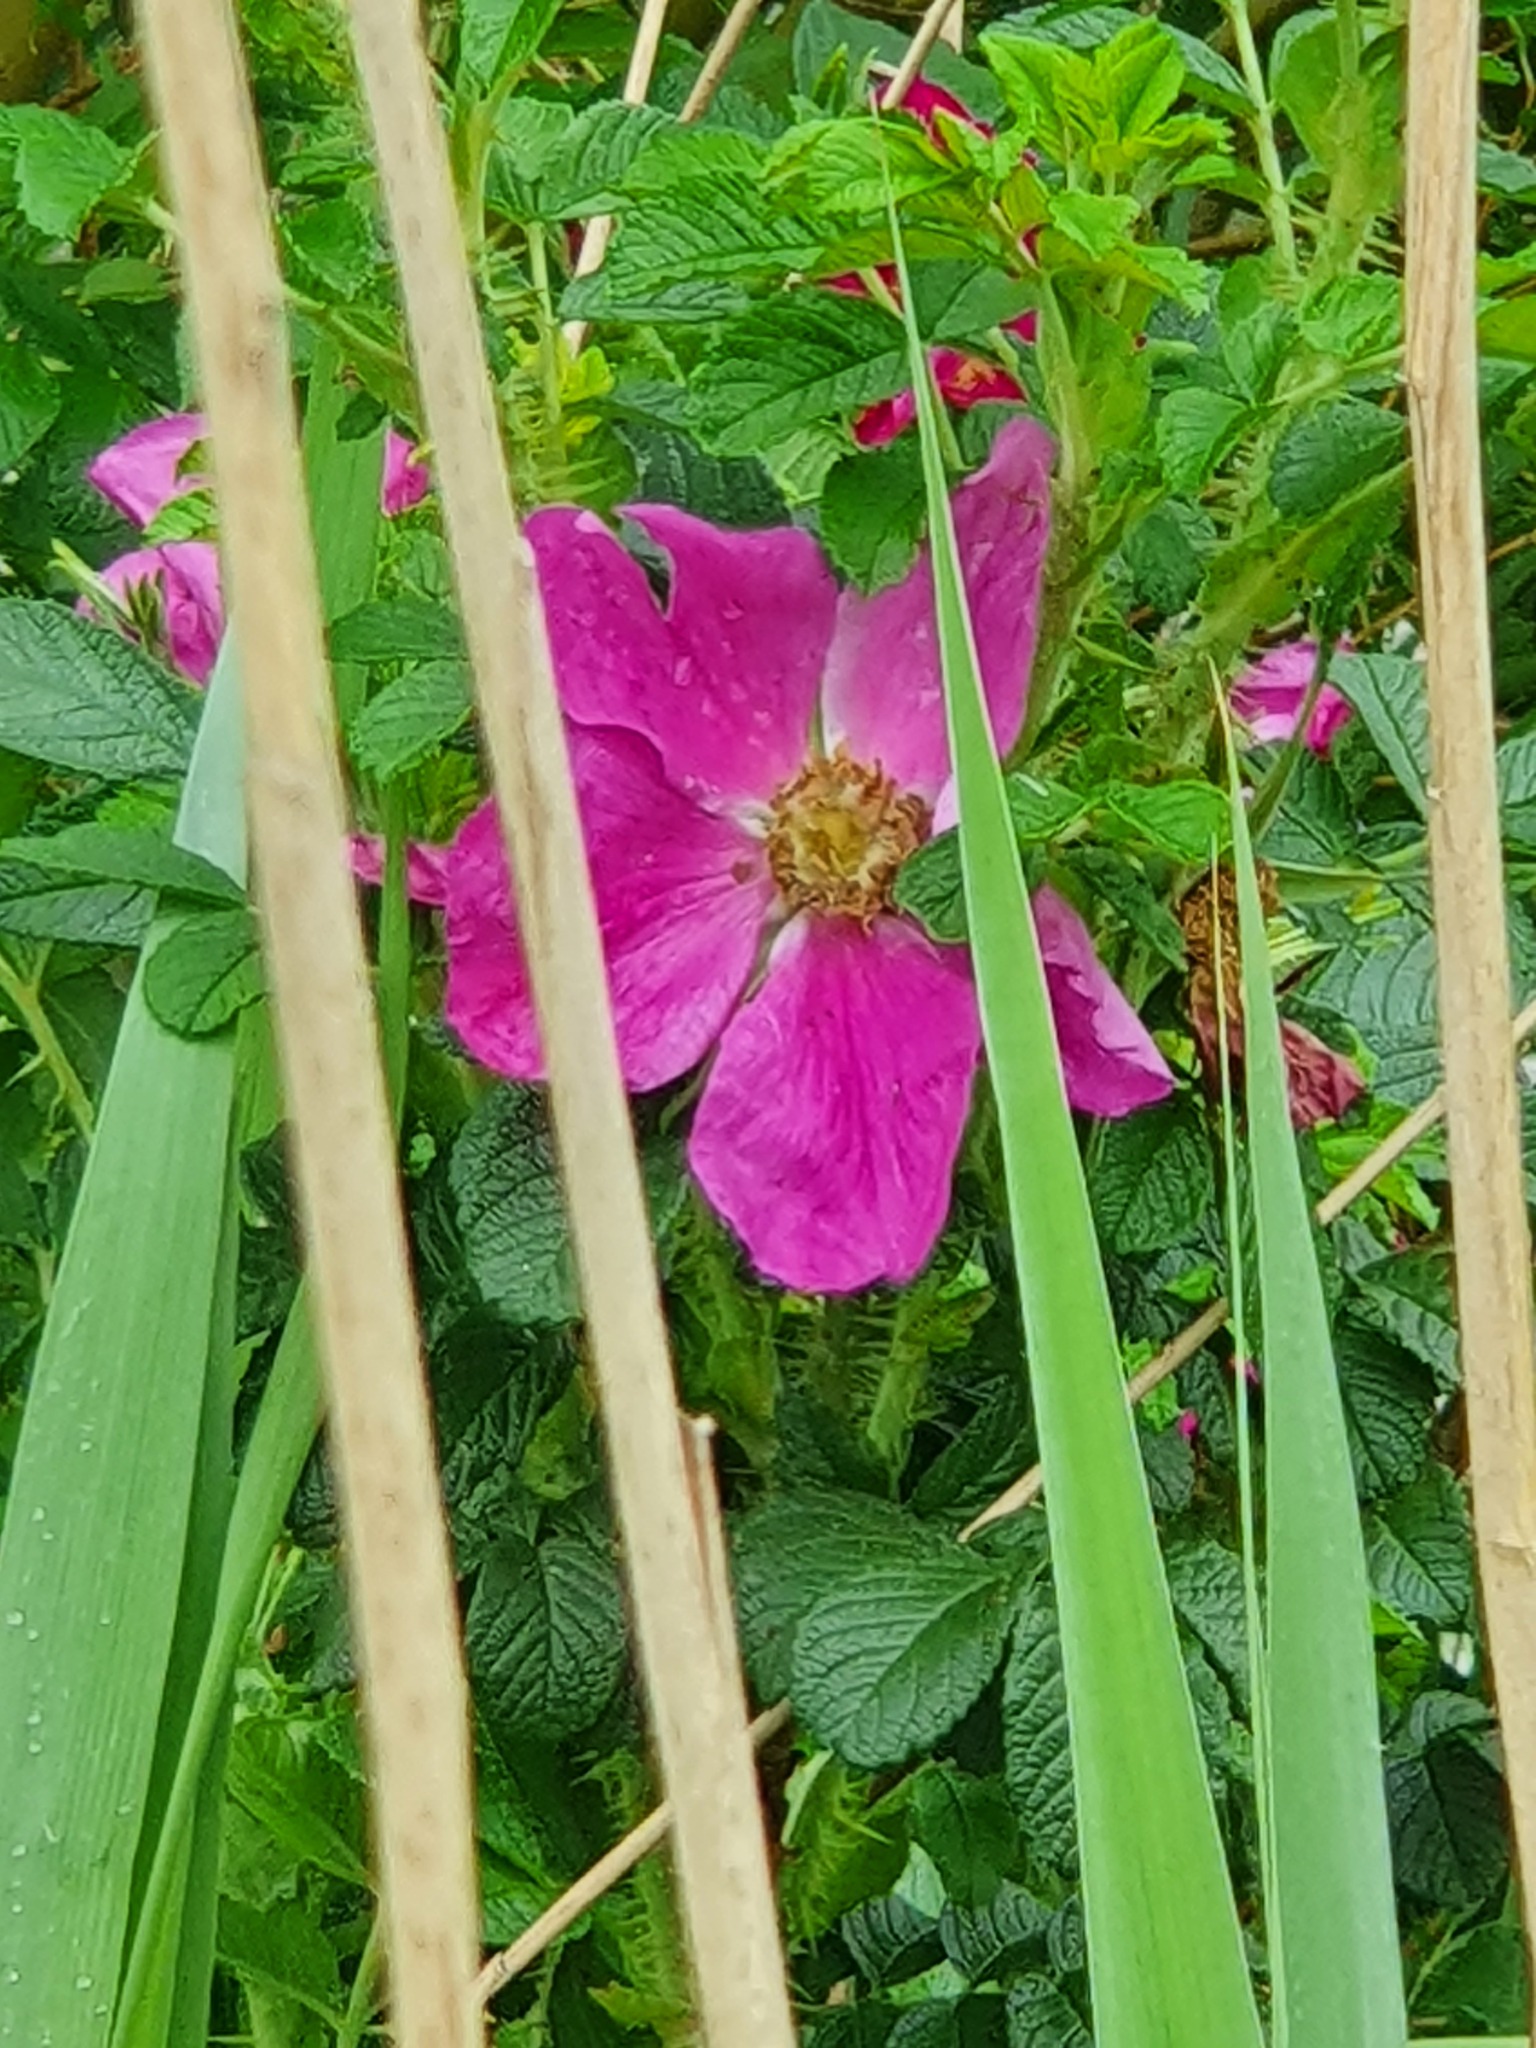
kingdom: Plantae
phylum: Tracheophyta
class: Magnoliopsida
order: Rosales
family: Rosaceae
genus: Rosa
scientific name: Rosa rugosa
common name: Japanese rose
